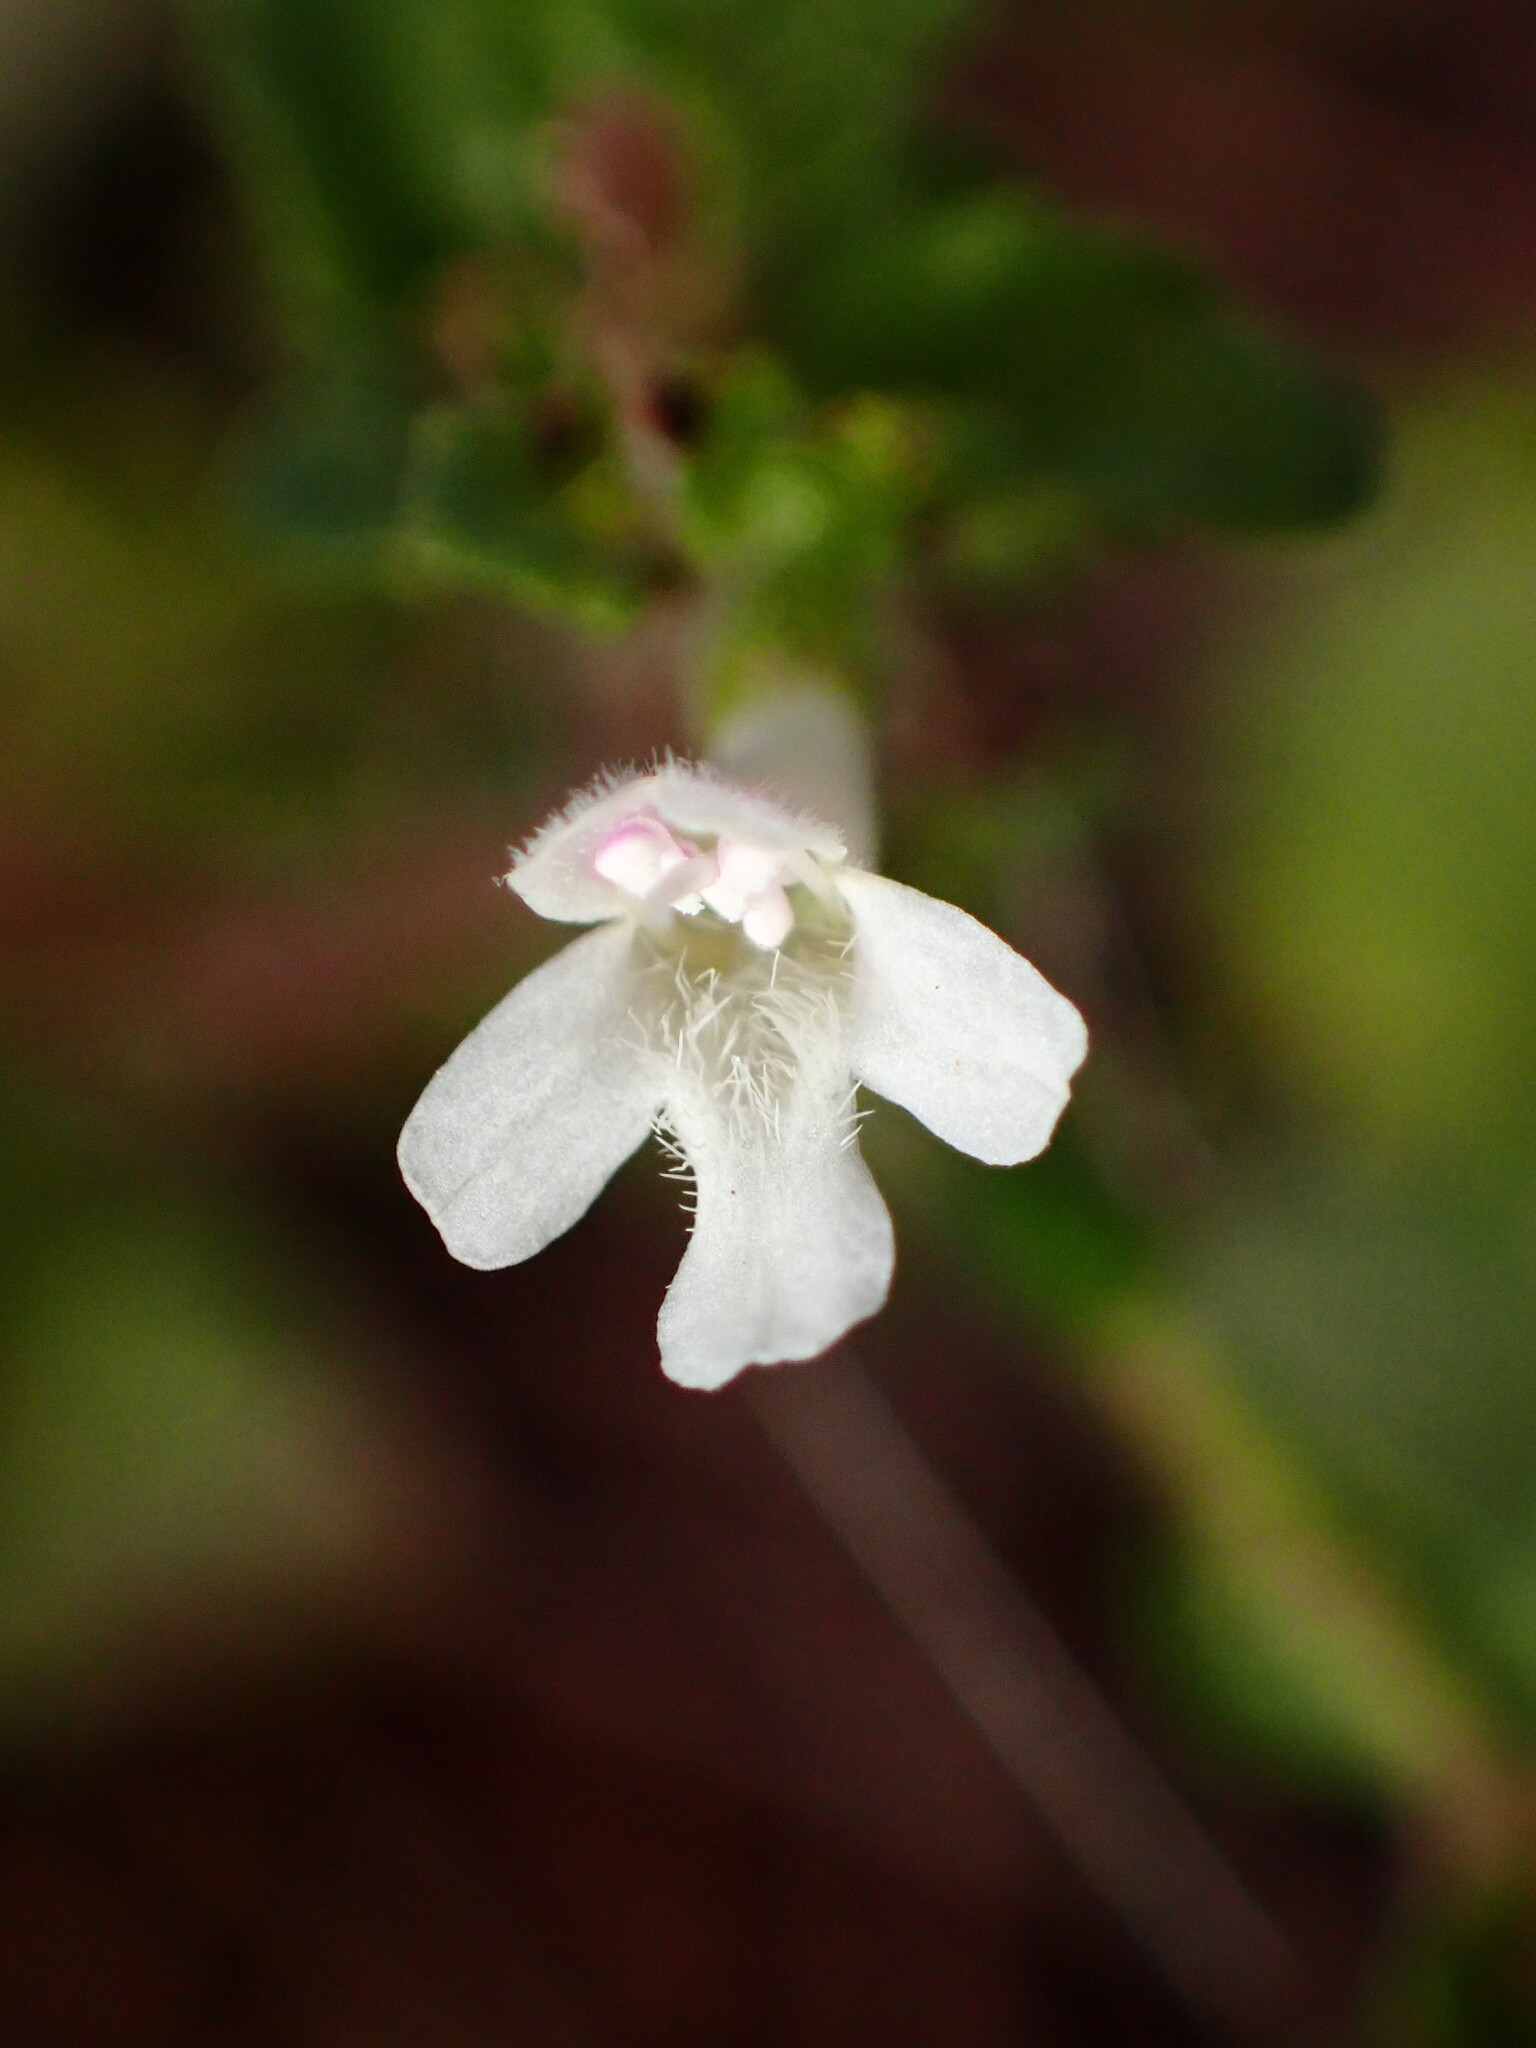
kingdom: Plantae
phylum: Tracheophyta
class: Magnoliopsida
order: Lamiales
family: Lamiaceae
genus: Micromeria
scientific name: Micromeria douglasii
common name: Yerba buena
